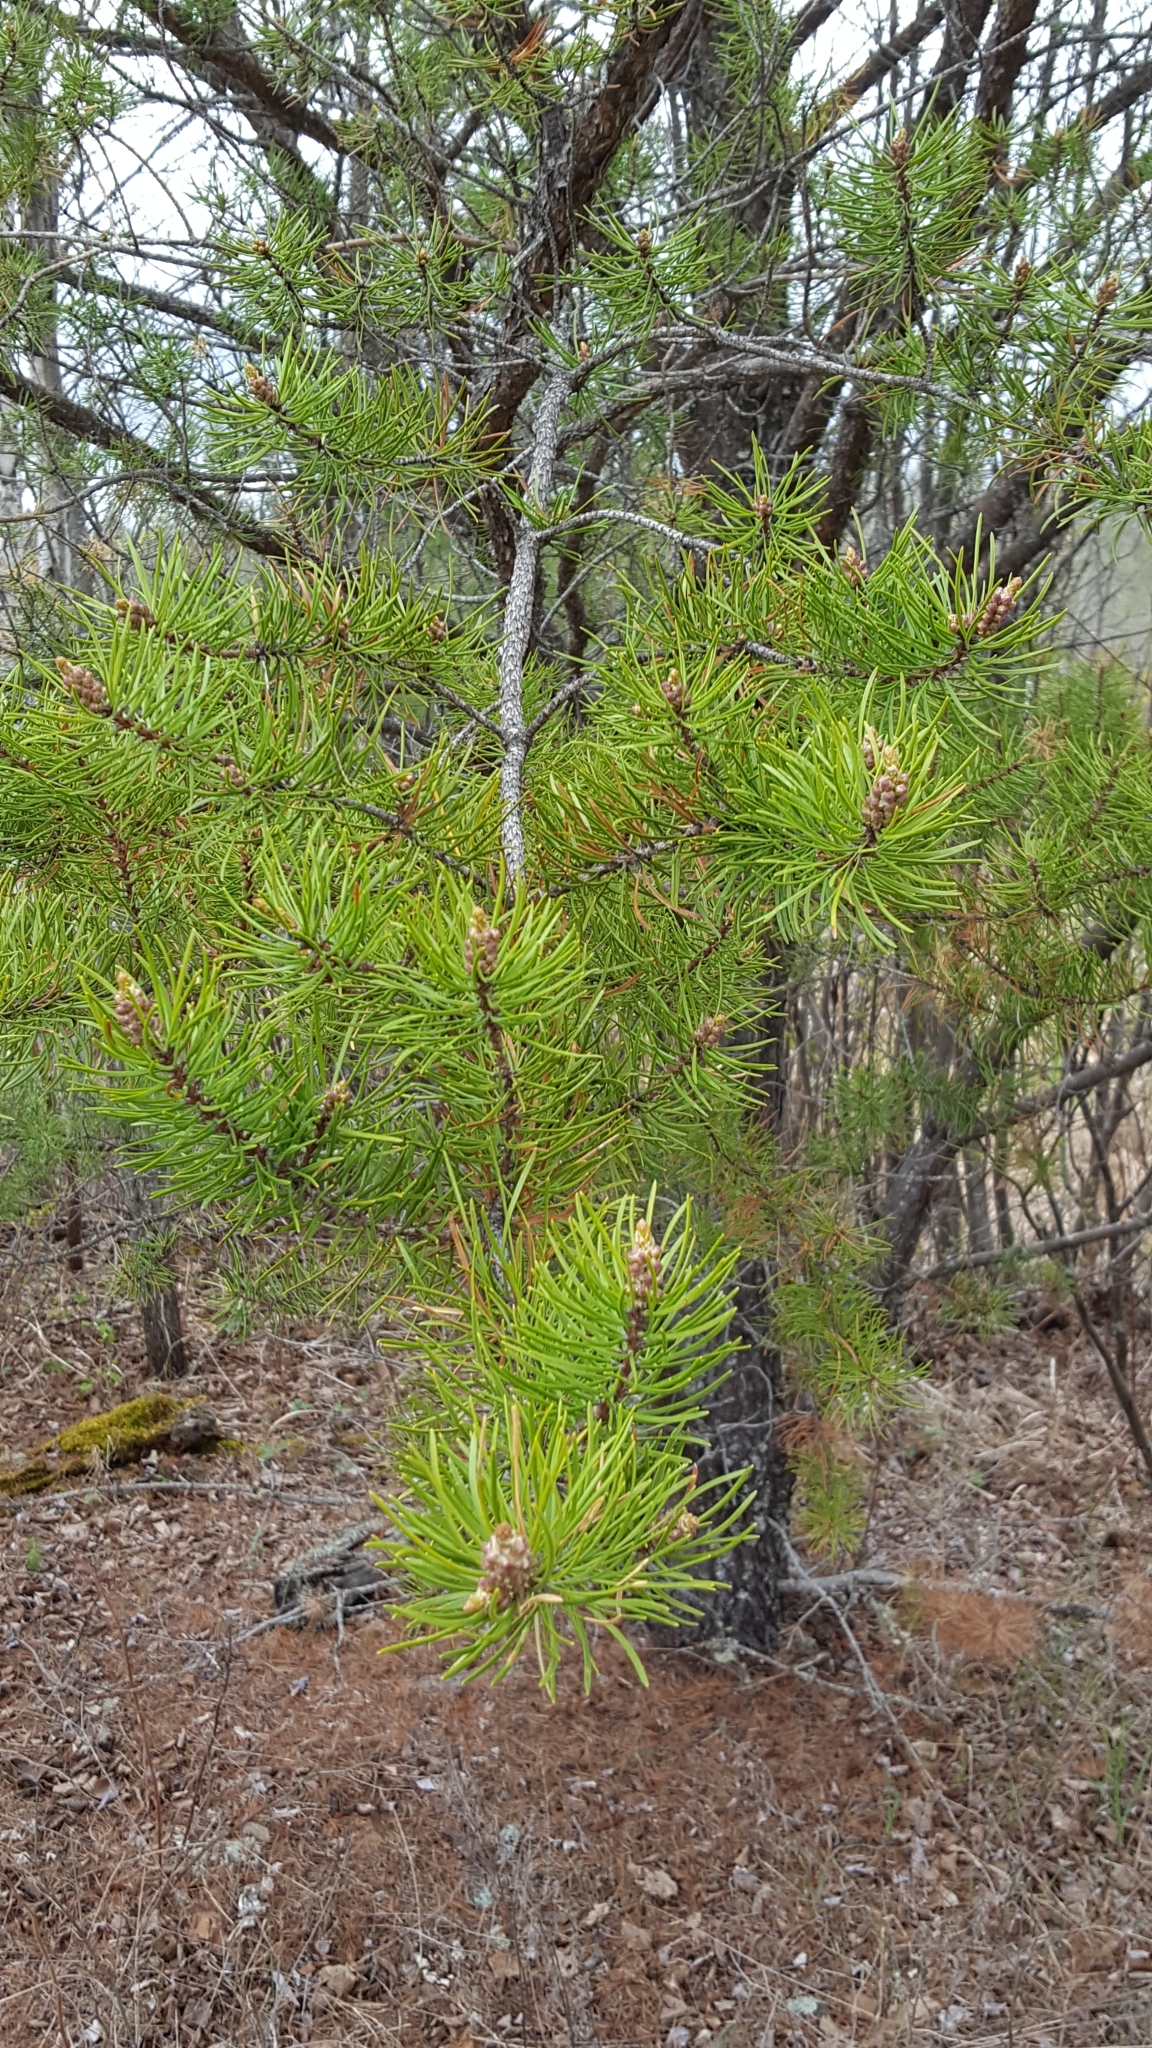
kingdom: Plantae
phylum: Tracheophyta
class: Pinopsida
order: Pinales
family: Pinaceae
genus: Pinus
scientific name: Pinus banksiana
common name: Jack pine
